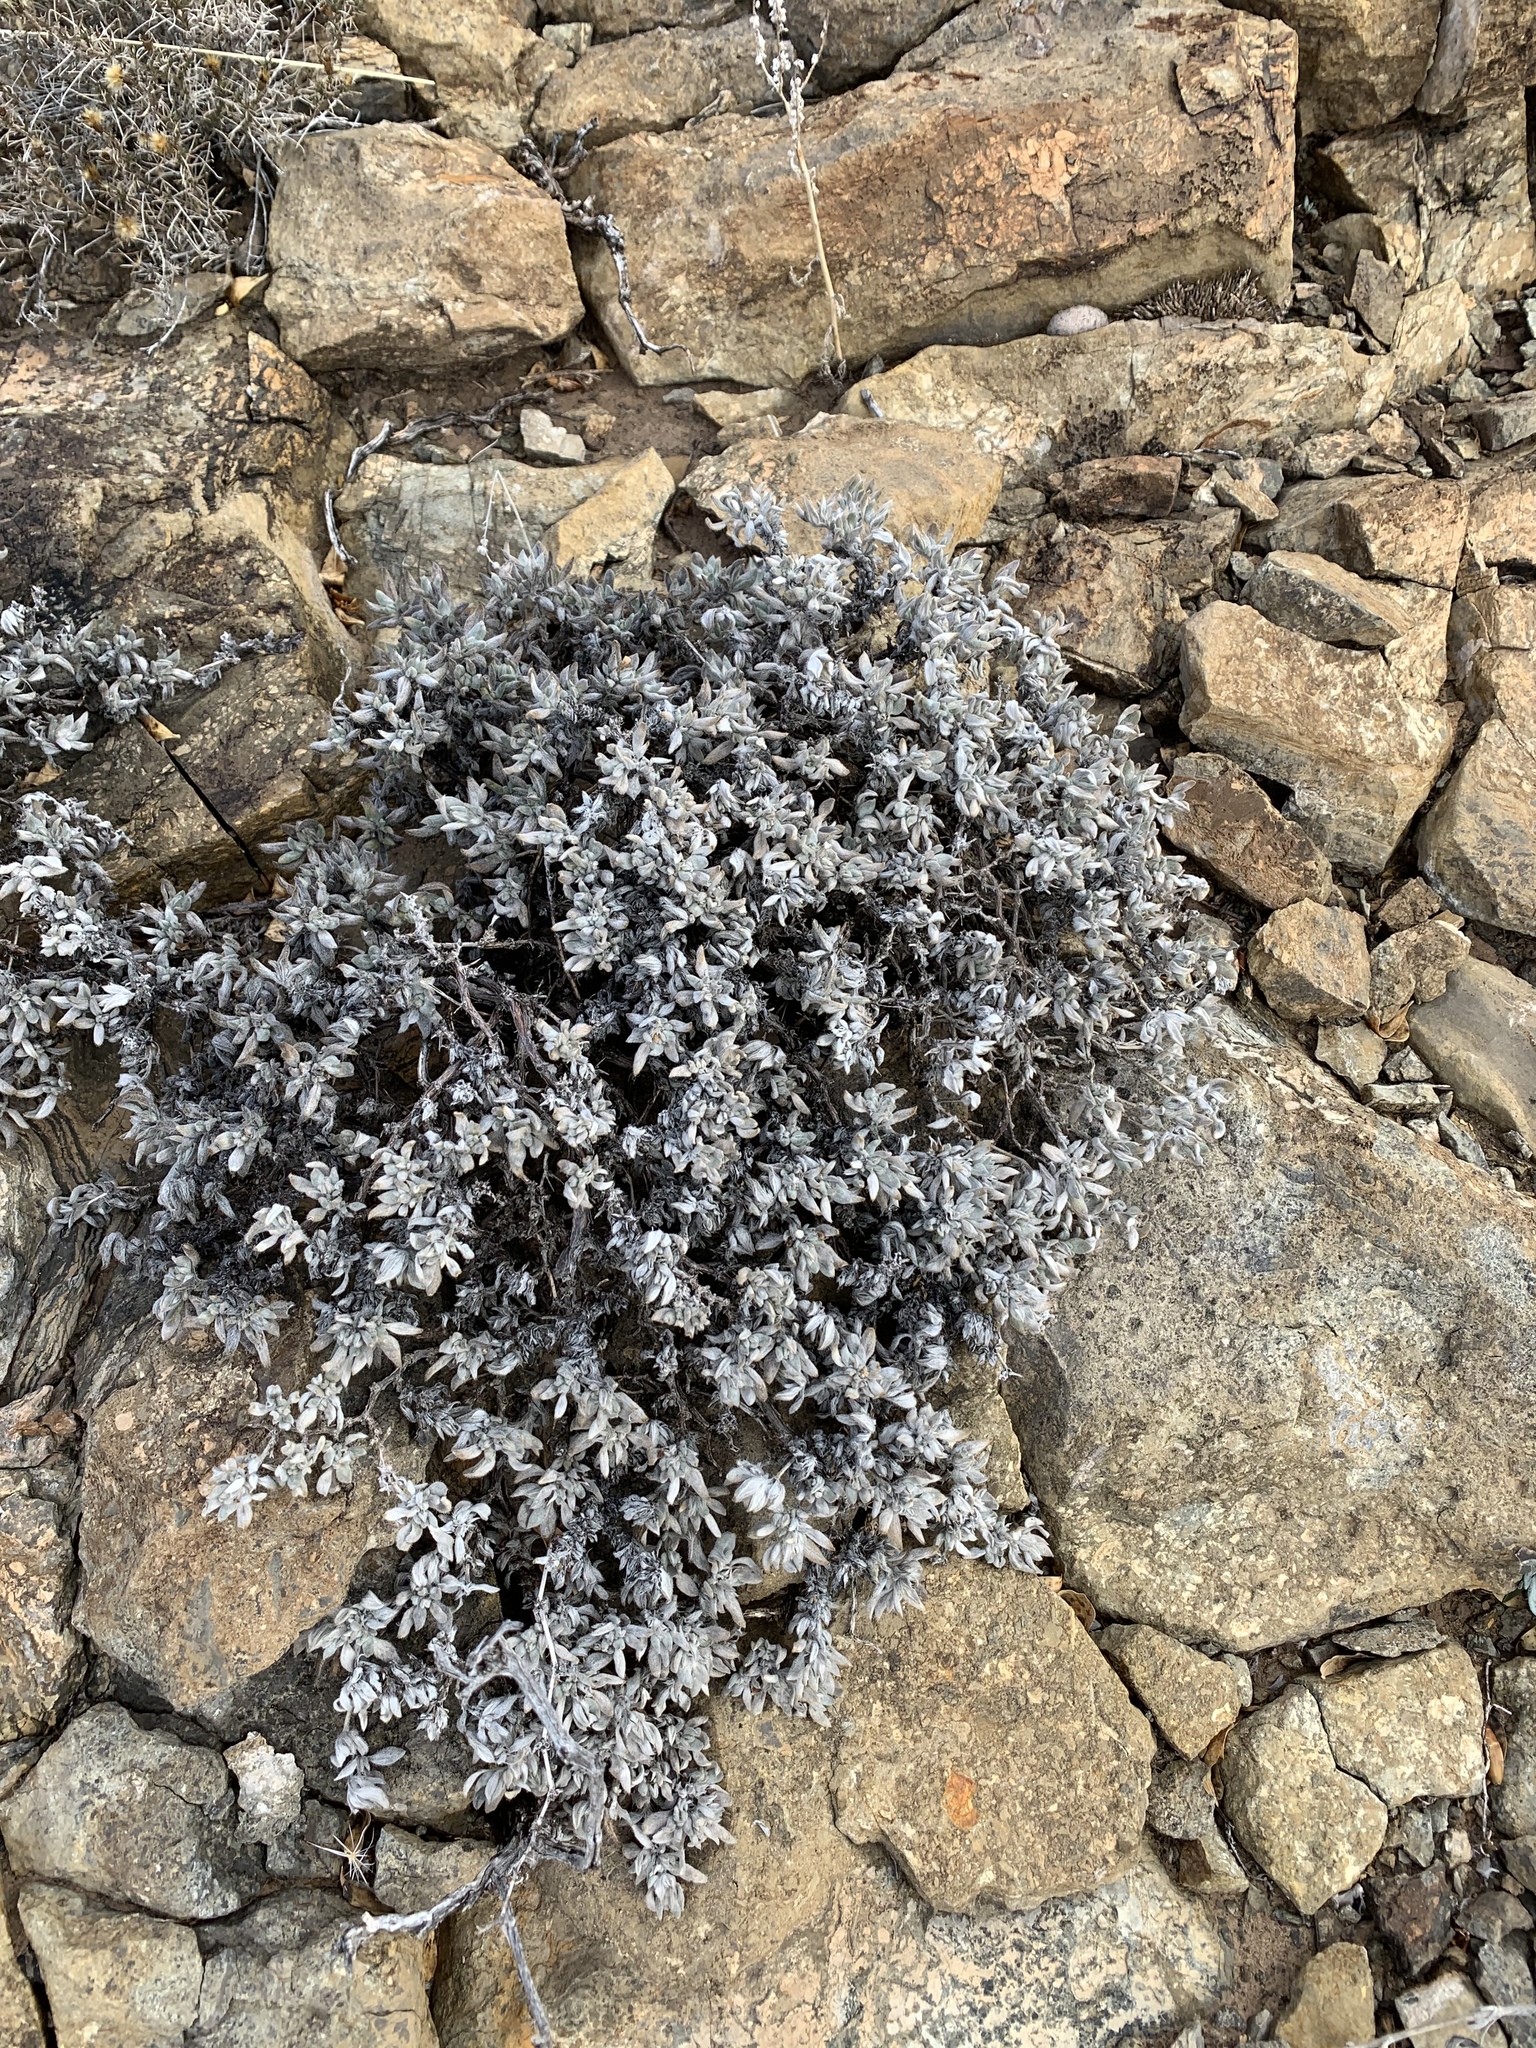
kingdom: Plantae
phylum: Tracheophyta
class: Magnoliopsida
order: Boraginales
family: Ehretiaceae
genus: Tiquilia
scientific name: Tiquilia canescens
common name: Hairy tiquilia
